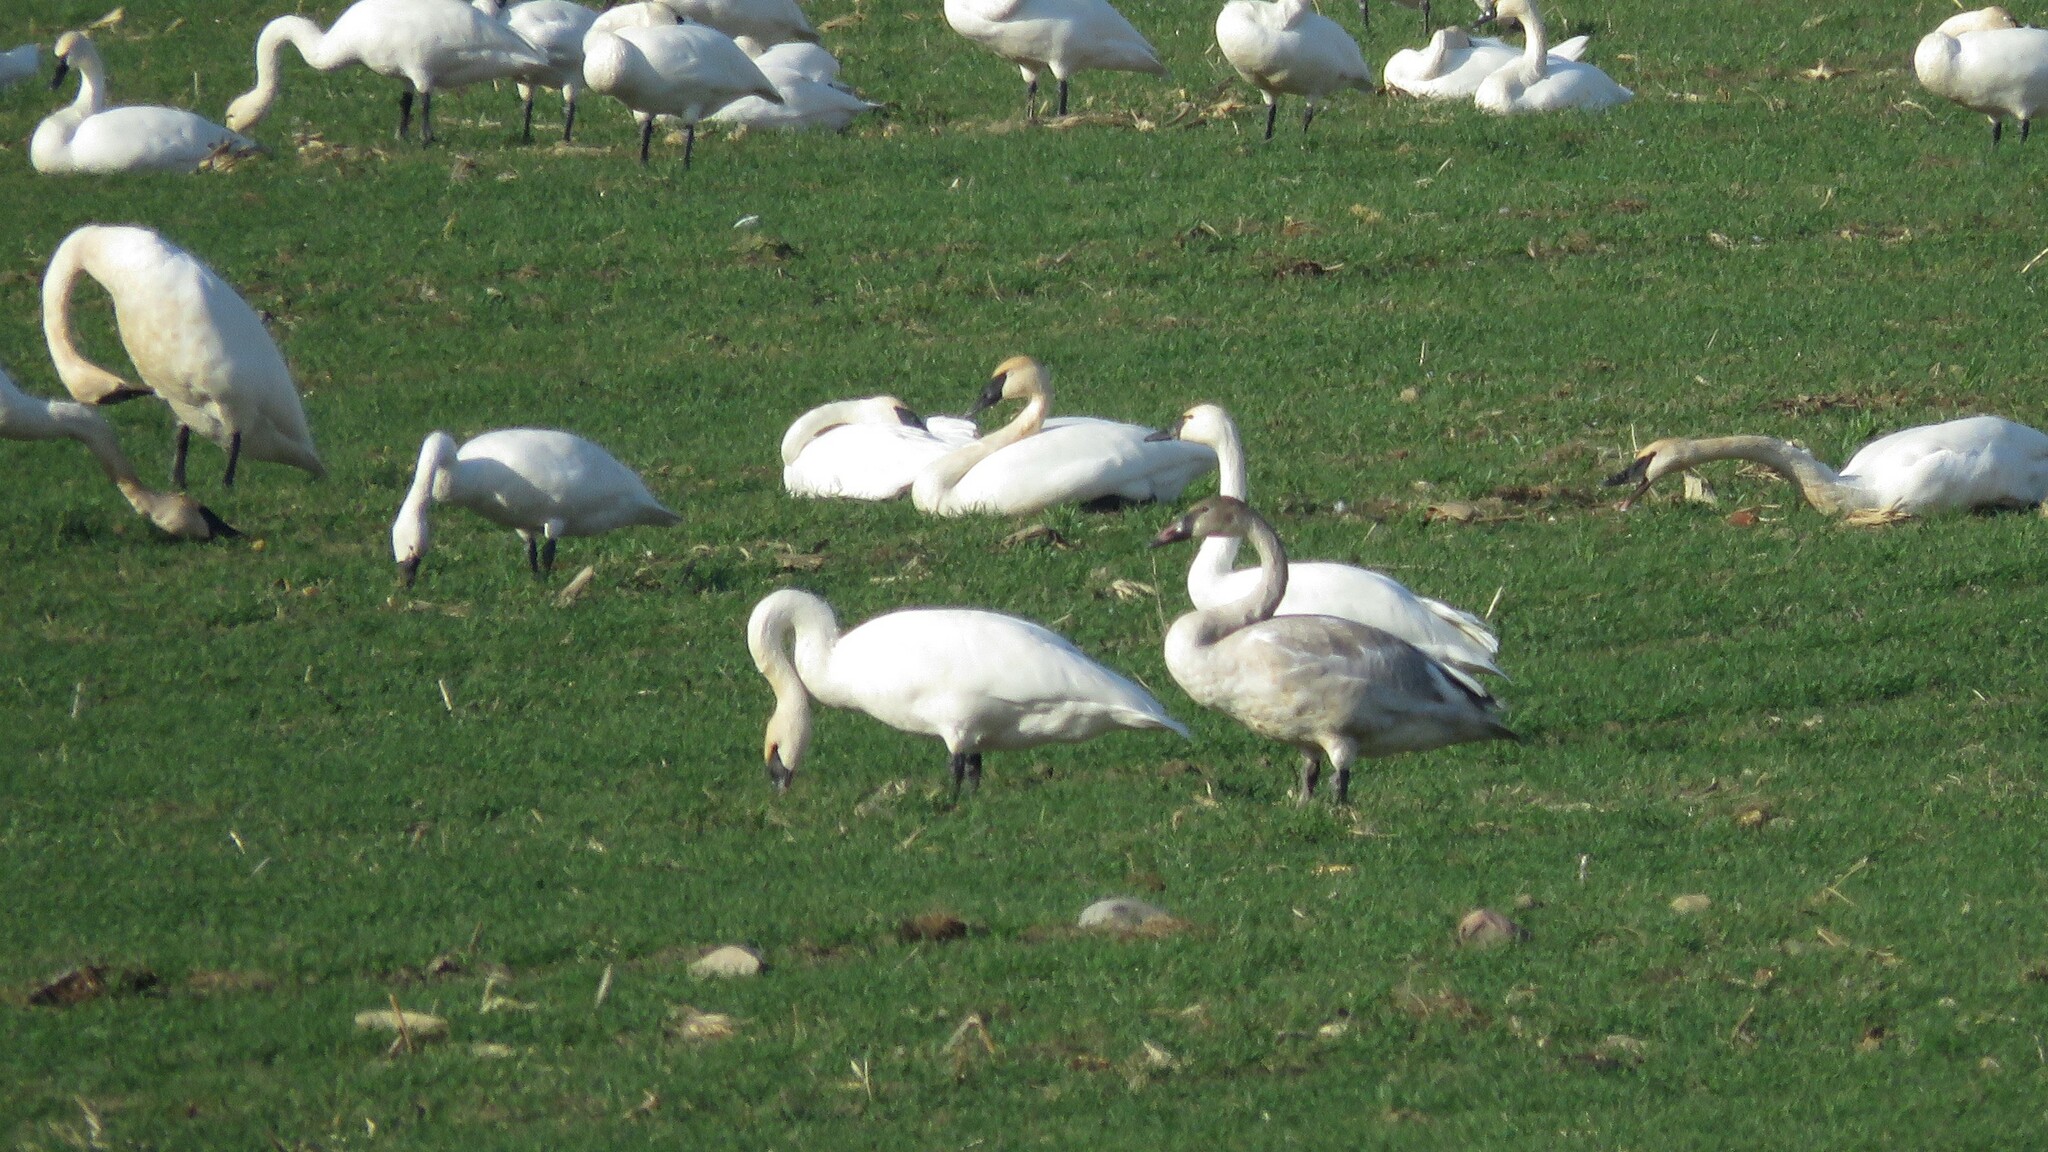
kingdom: Animalia
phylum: Chordata
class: Aves
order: Anseriformes
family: Anatidae
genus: Cygnus
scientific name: Cygnus buccinator
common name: Trumpeter swan
